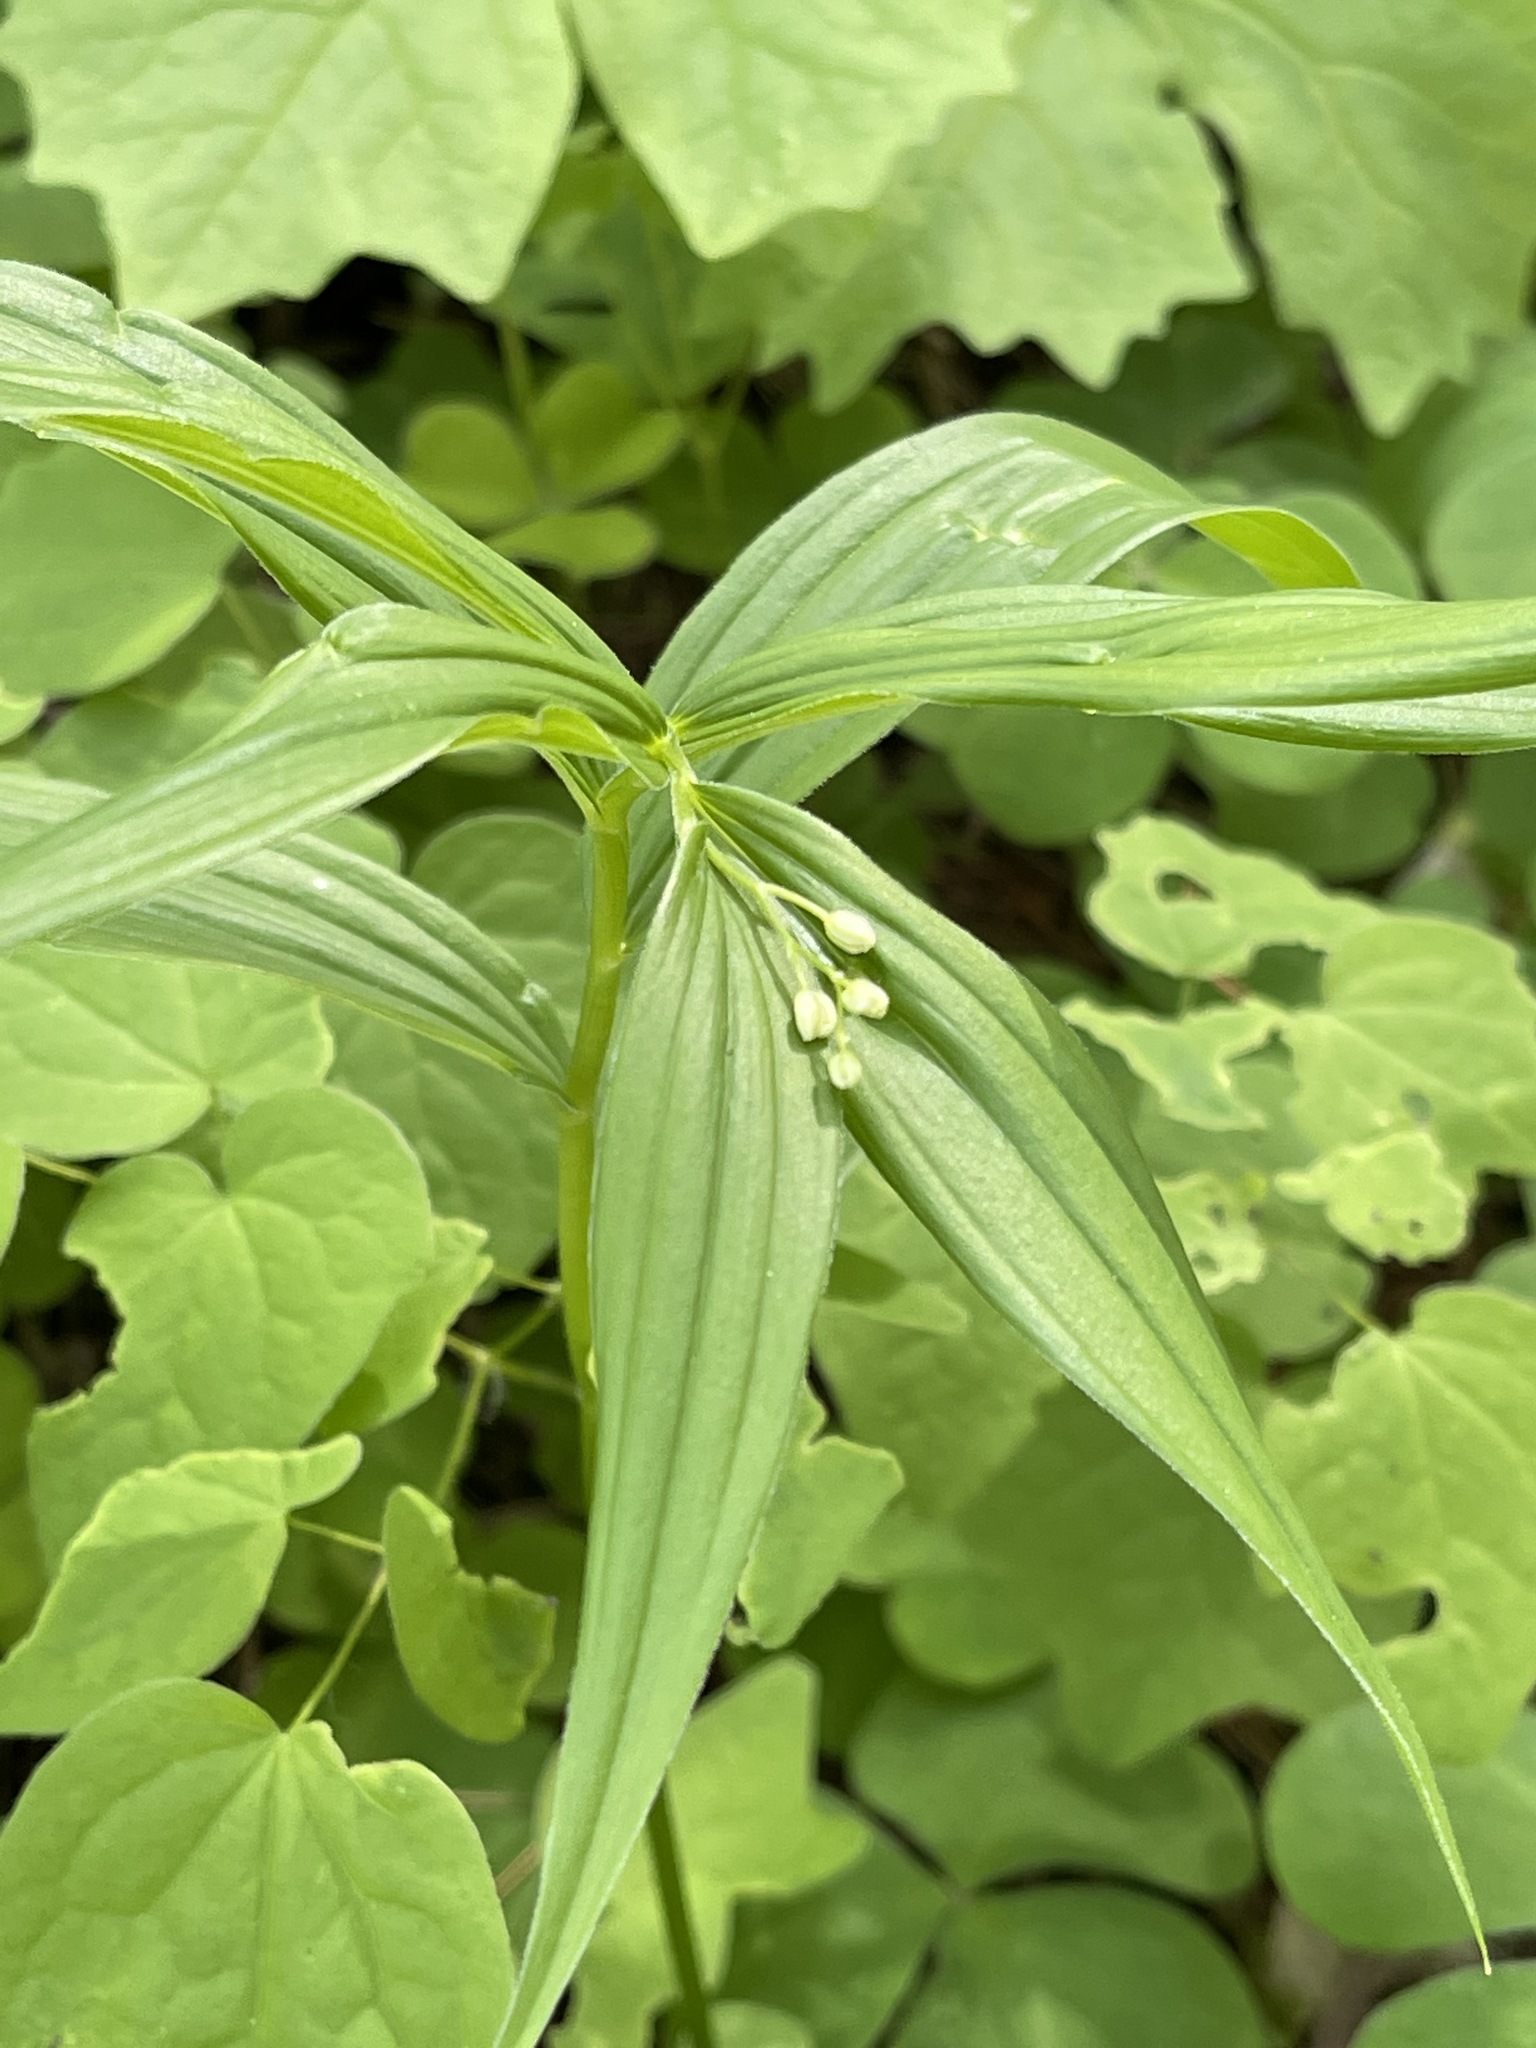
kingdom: Plantae
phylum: Tracheophyta
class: Liliopsida
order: Asparagales
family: Asparagaceae
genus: Maianthemum
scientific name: Maianthemum stellatum
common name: Little false solomon's seal
